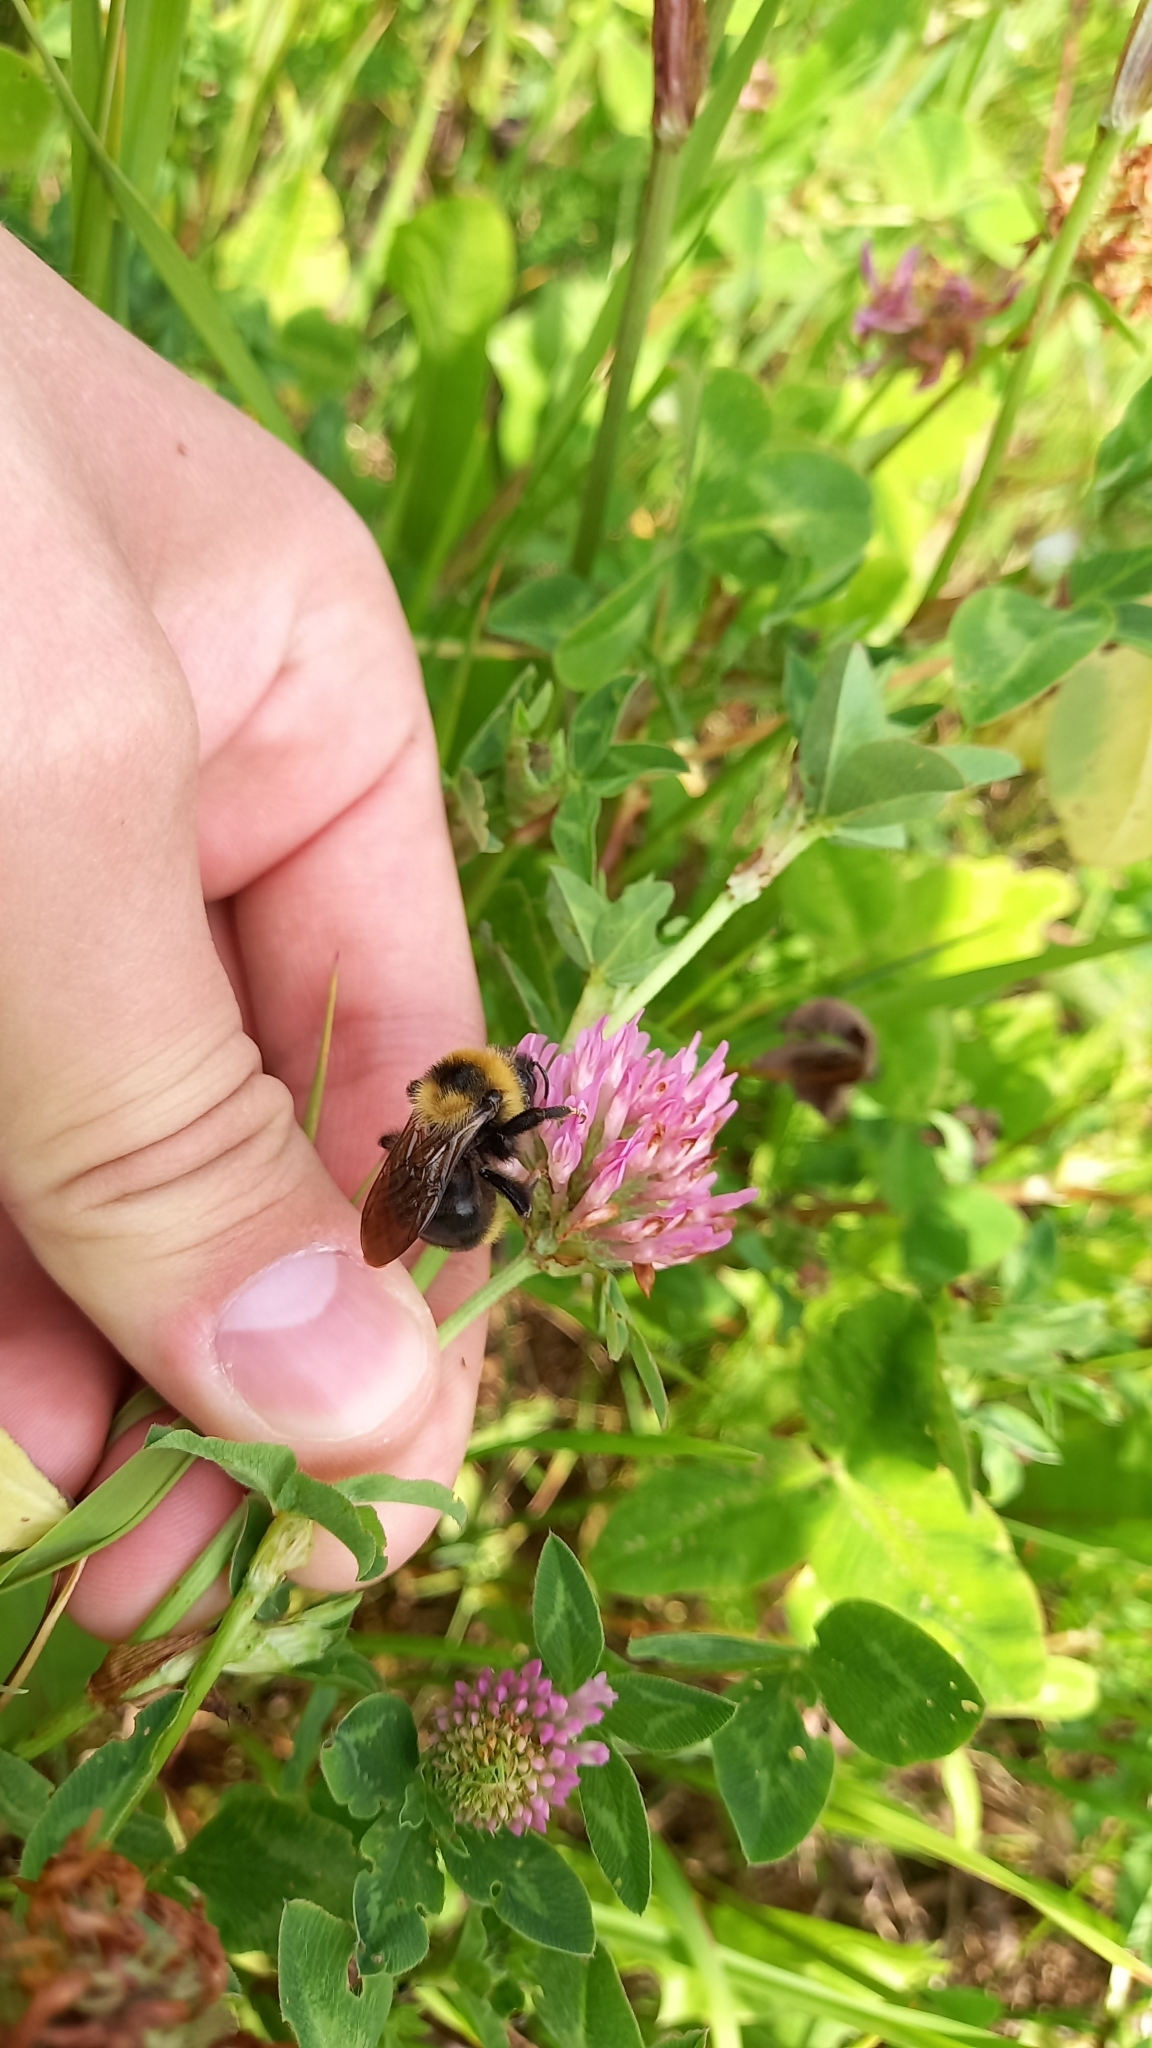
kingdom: Animalia
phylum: Arthropoda
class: Insecta
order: Hymenoptera
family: Apidae
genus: Bombus
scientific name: Bombus campestris
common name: Field cuckoo-bee
